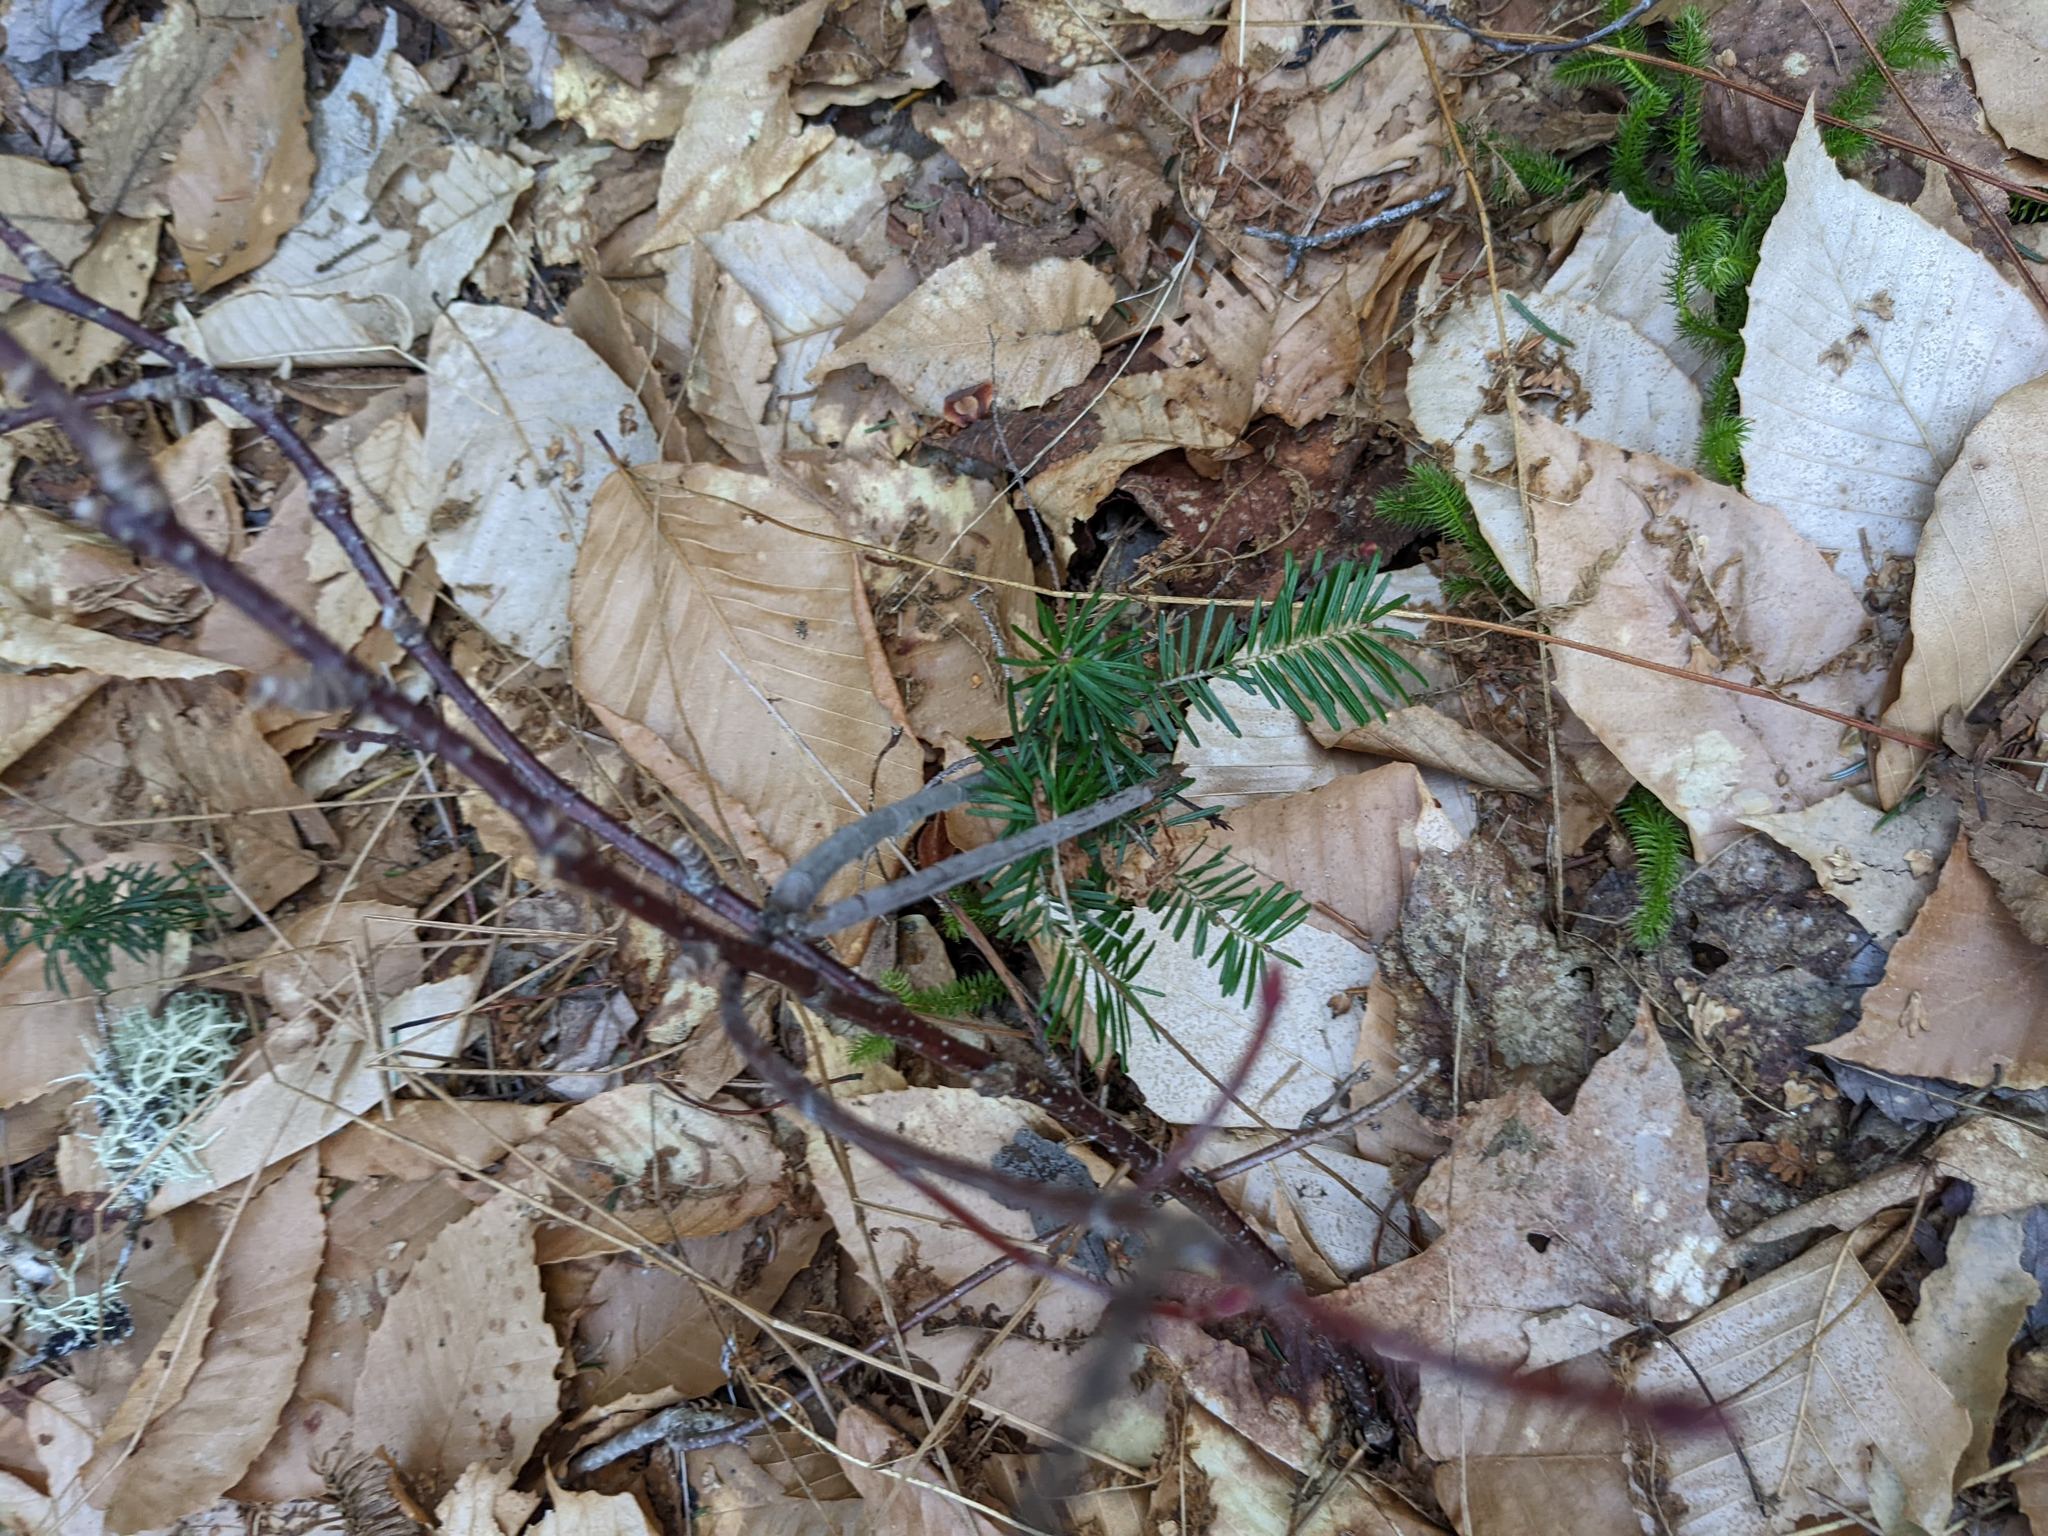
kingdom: Plantae
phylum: Tracheophyta
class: Pinopsida
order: Pinales
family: Pinaceae
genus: Abies
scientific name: Abies balsamea
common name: Balsam fir
